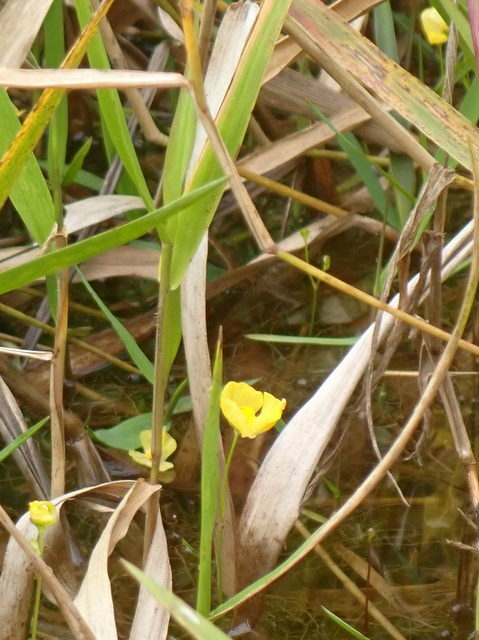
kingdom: Plantae
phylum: Tracheophyta
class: Magnoliopsida
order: Lamiales
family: Lentibulariaceae
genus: Utricularia
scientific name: Utricularia gibba
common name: Humped bladderwort
